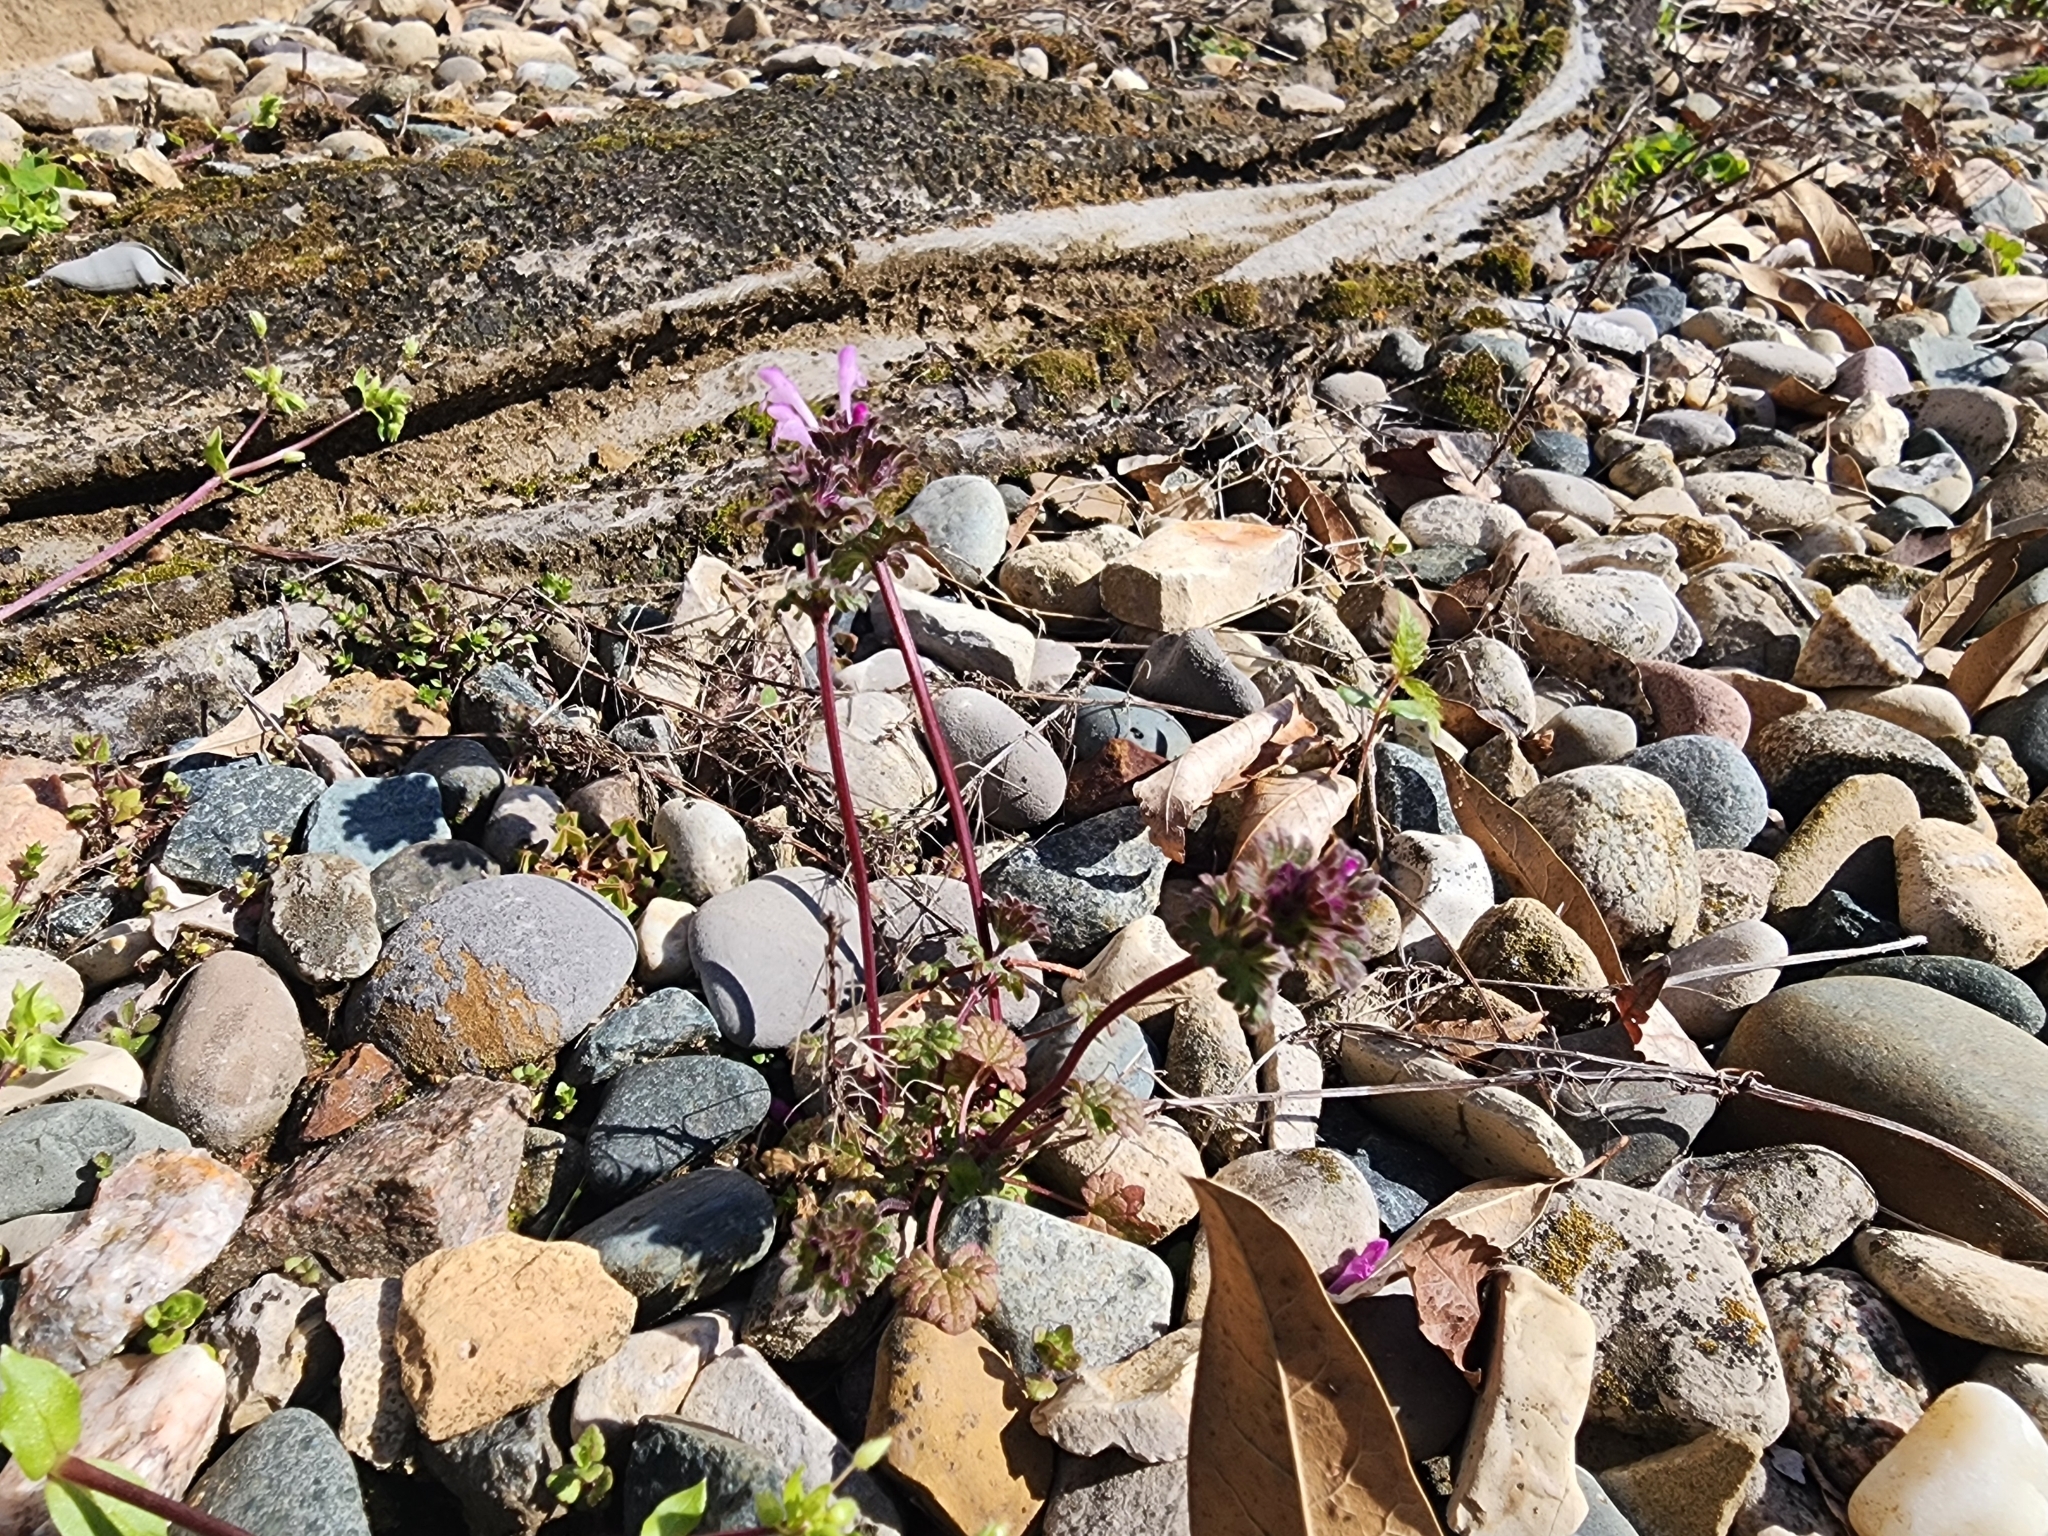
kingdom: Plantae
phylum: Tracheophyta
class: Magnoliopsida
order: Lamiales
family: Lamiaceae
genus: Lamium
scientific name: Lamium amplexicaule
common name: Henbit dead-nettle
